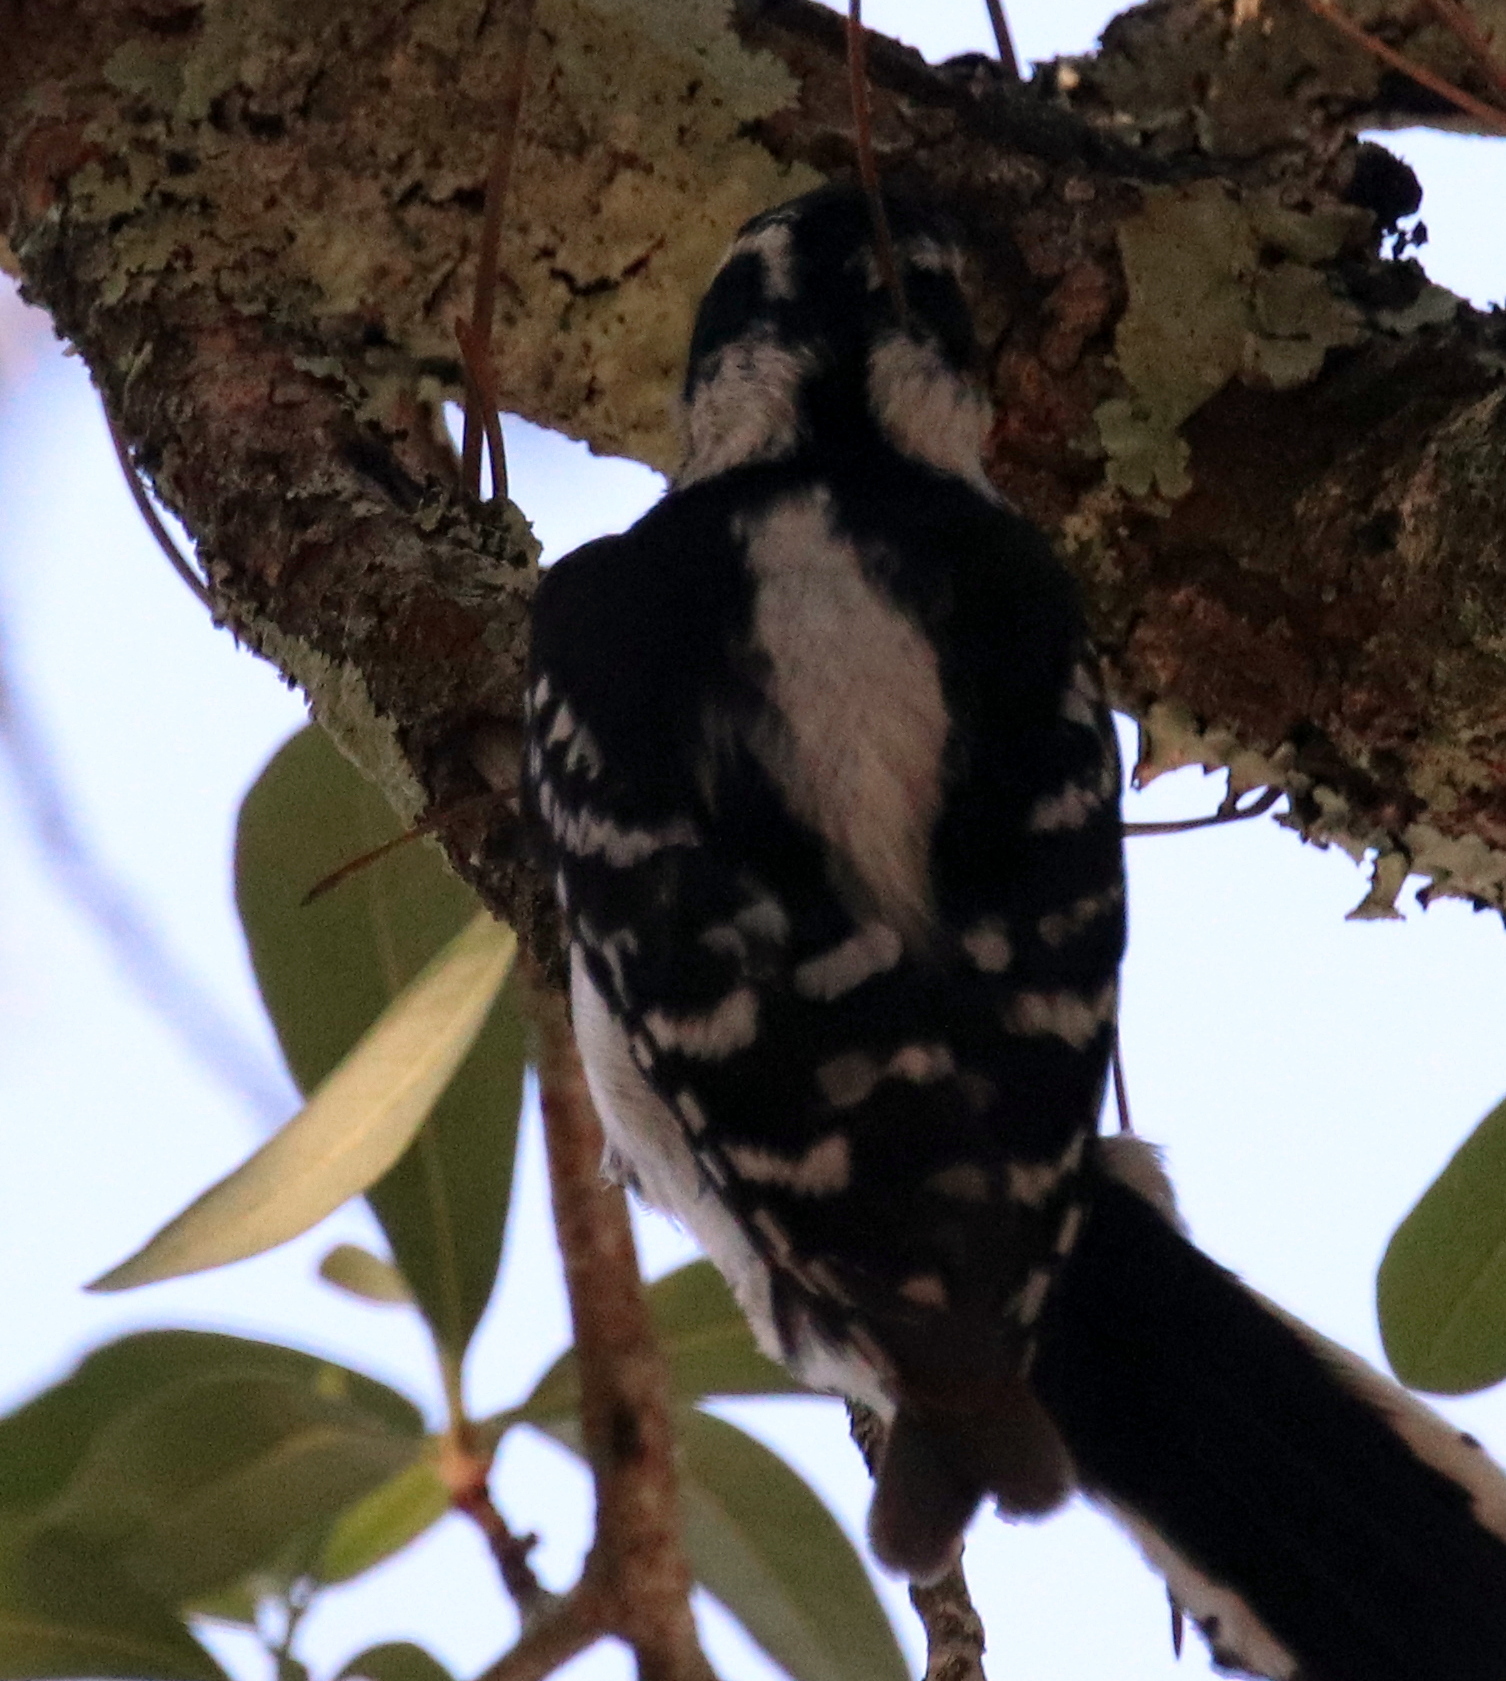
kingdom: Animalia
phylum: Chordata
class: Aves
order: Piciformes
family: Picidae
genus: Dryobates
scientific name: Dryobates pubescens
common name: Downy woodpecker
